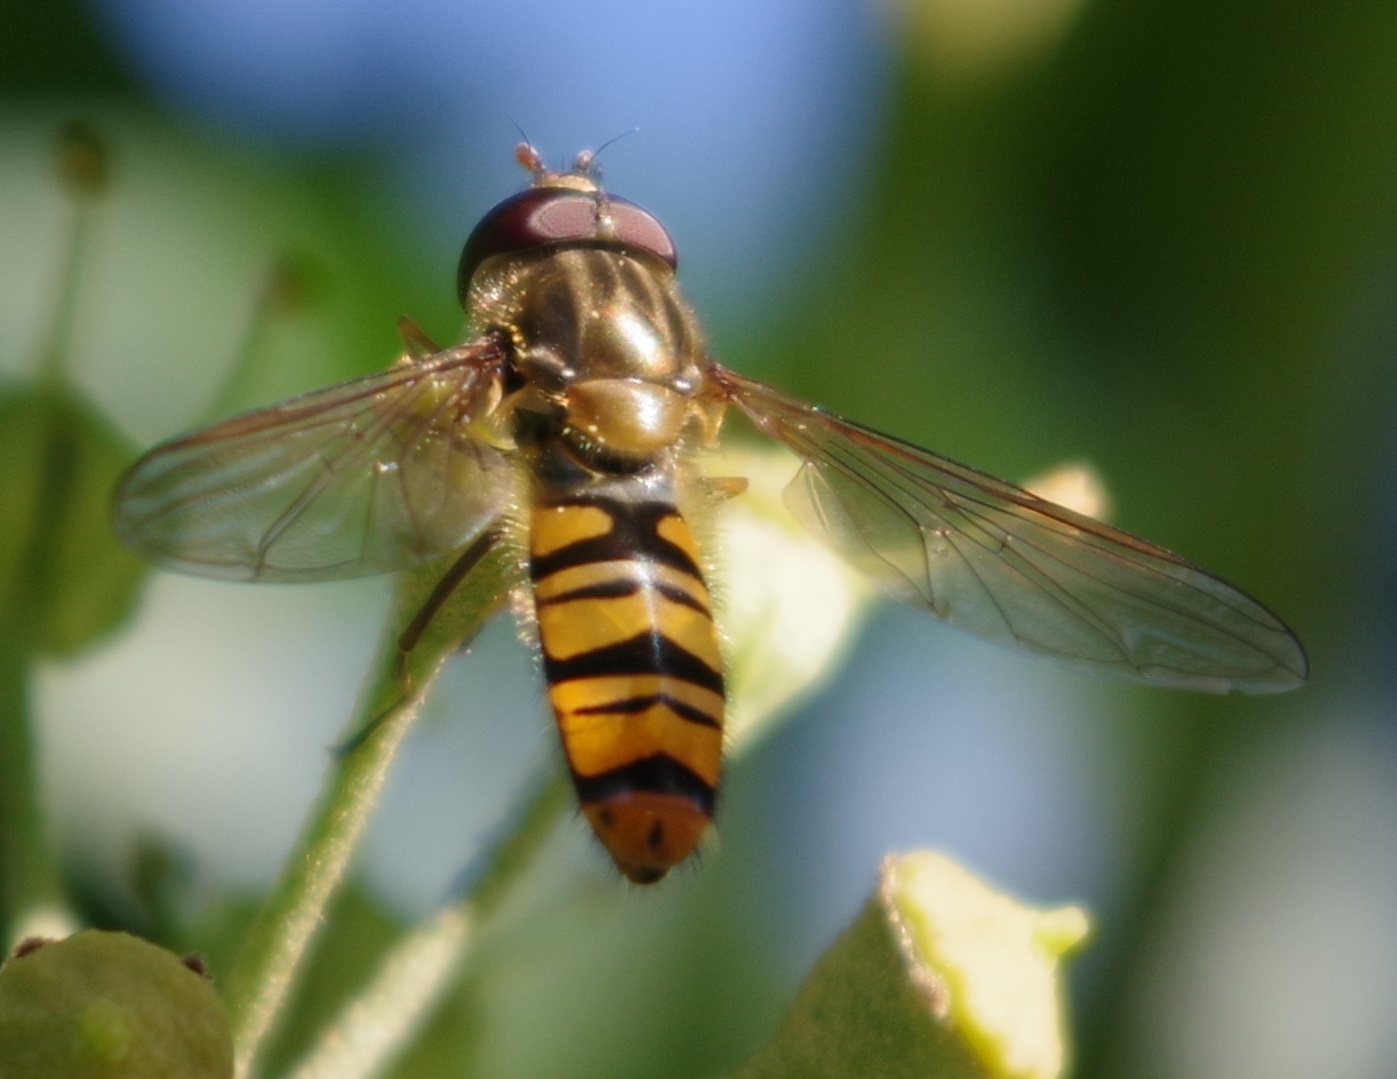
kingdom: Animalia
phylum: Arthropoda
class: Insecta
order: Diptera
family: Syrphidae
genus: Episyrphus
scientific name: Episyrphus balteatus
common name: Marmalade hoverfly
